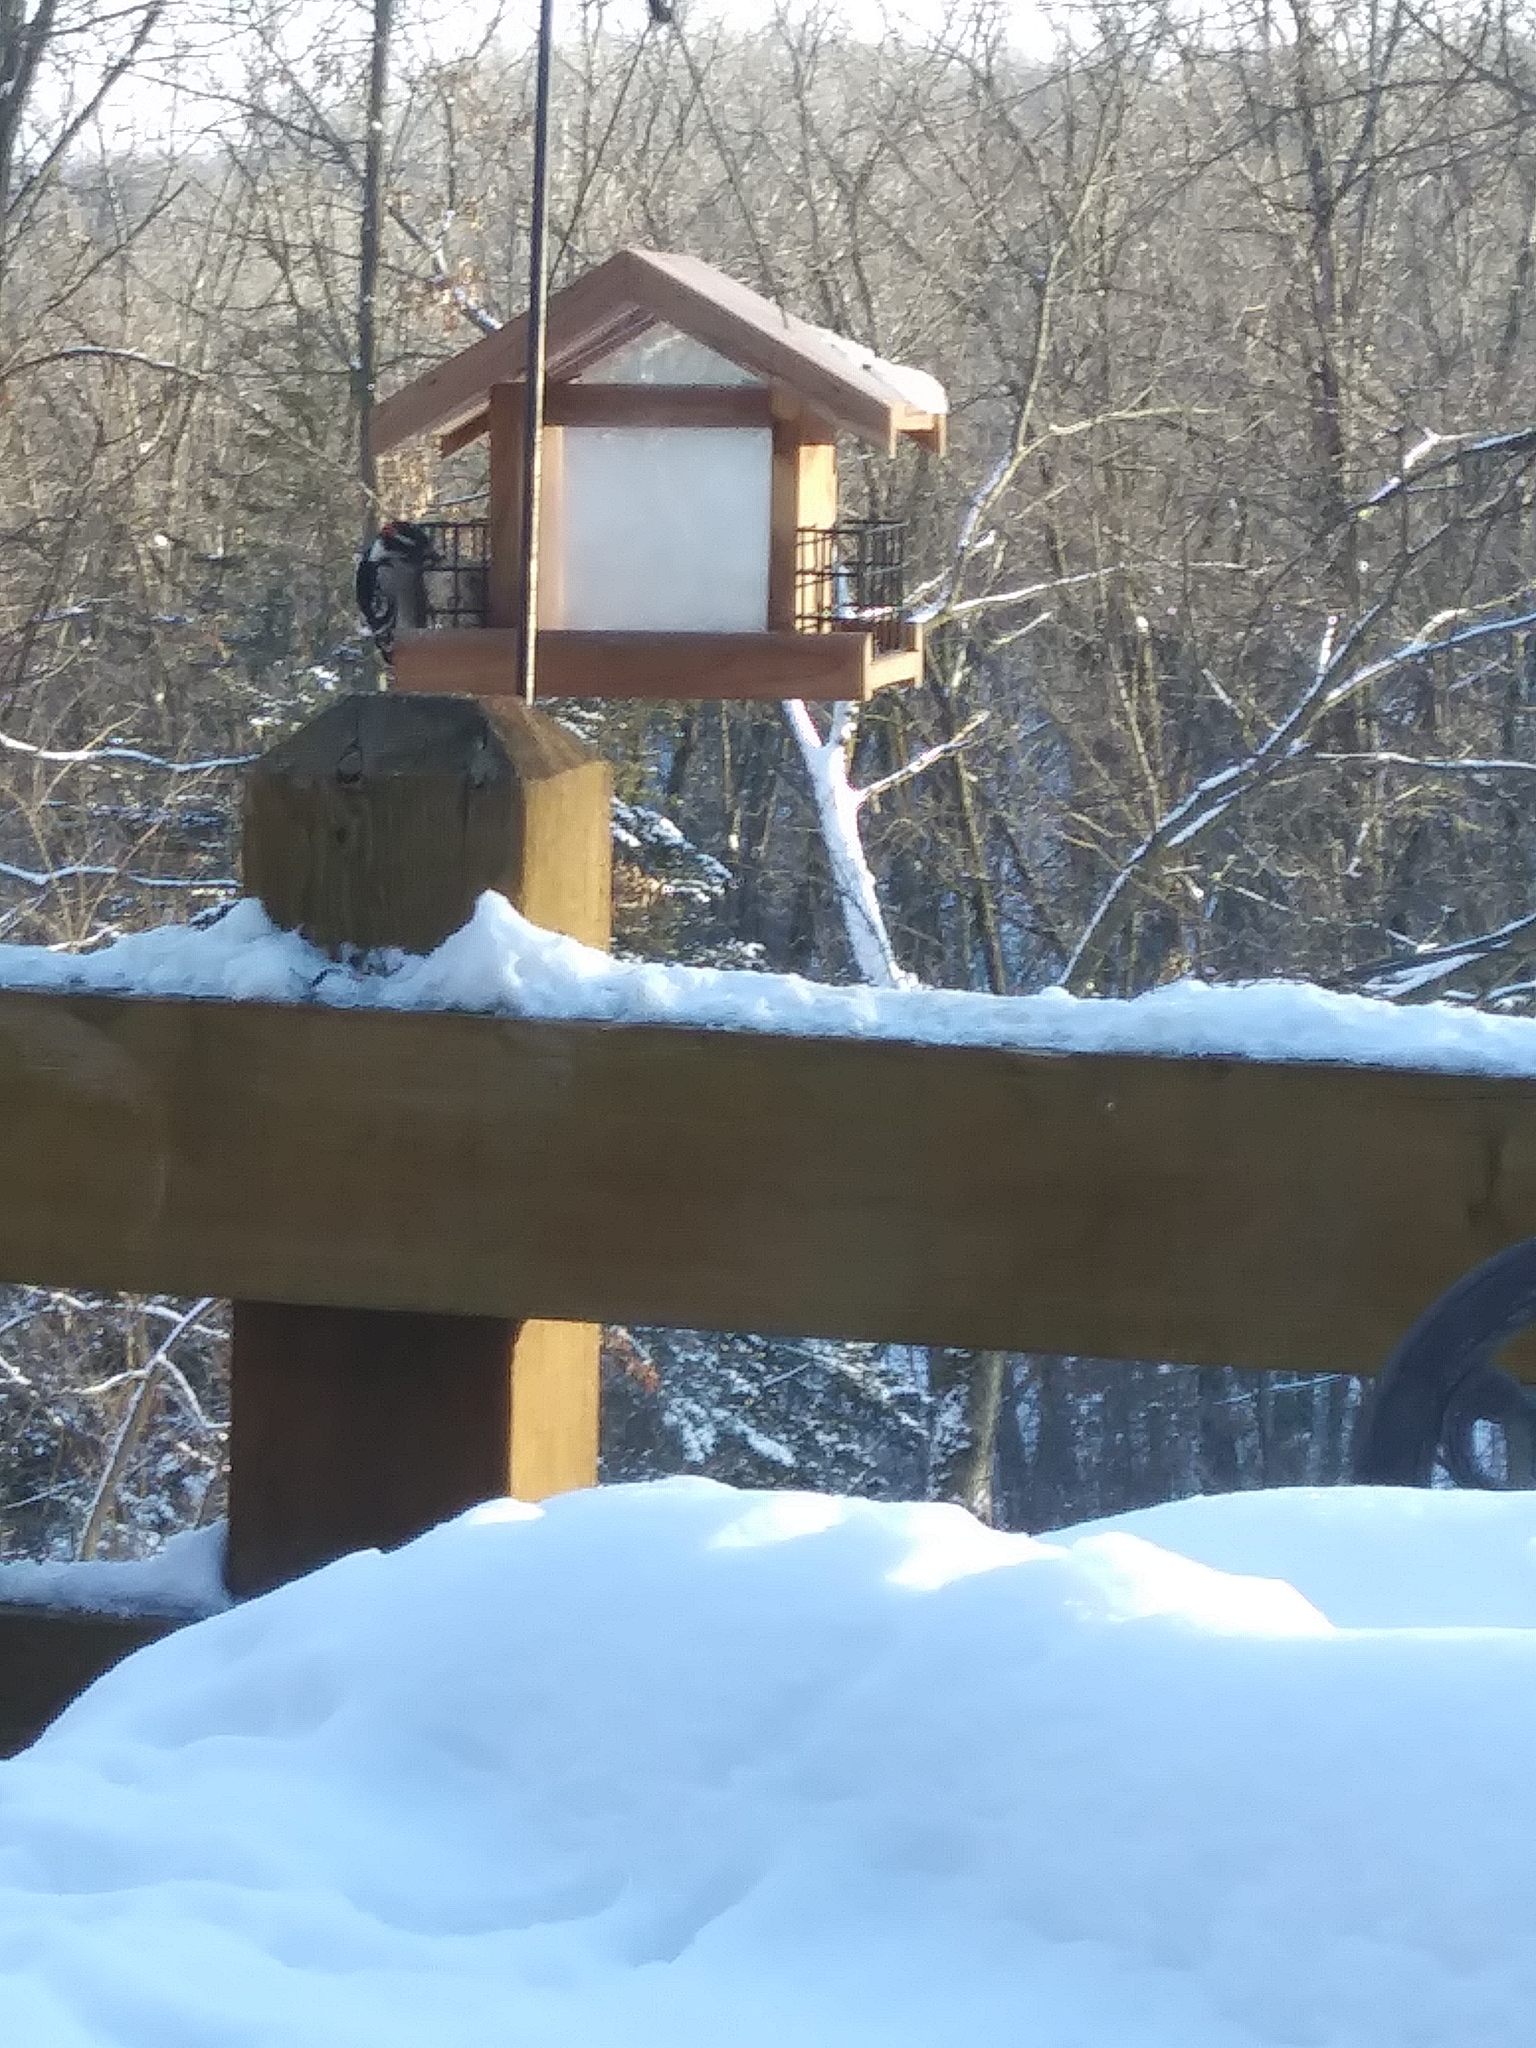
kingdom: Animalia
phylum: Chordata
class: Aves
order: Piciformes
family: Picidae
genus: Dryobates
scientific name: Dryobates pubescens
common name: Downy woodpecker
